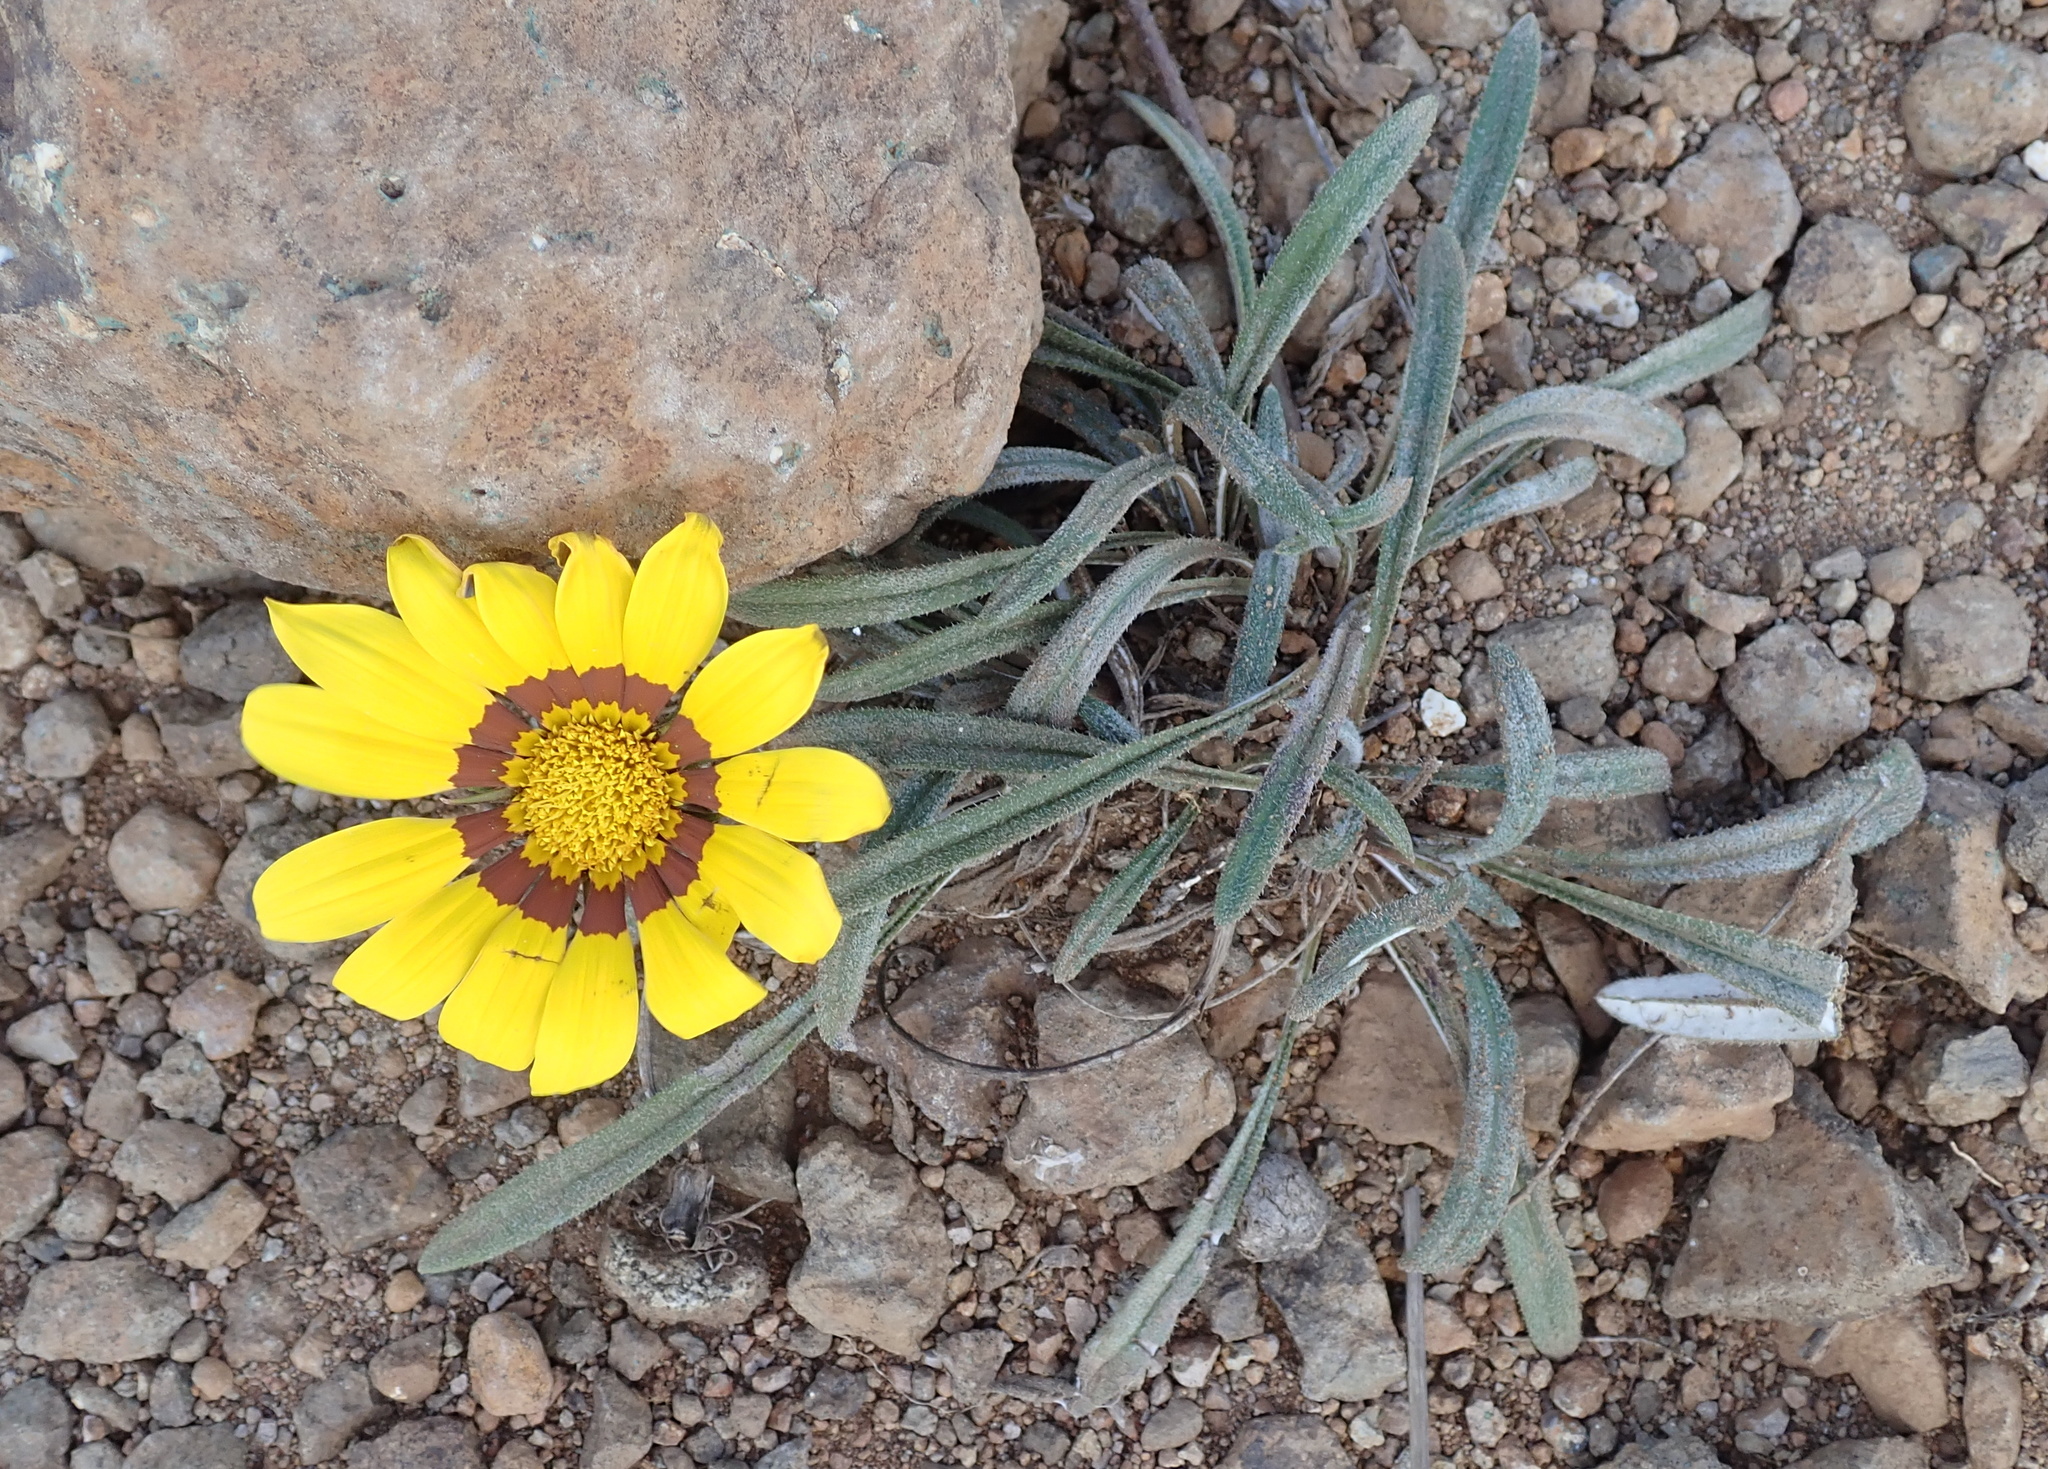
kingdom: Plantae
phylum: Tracheophyta
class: Magnoliopsida
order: Asterales
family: Asteraceae
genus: Gazania
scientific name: Gazania linearis
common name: Treasureflower
